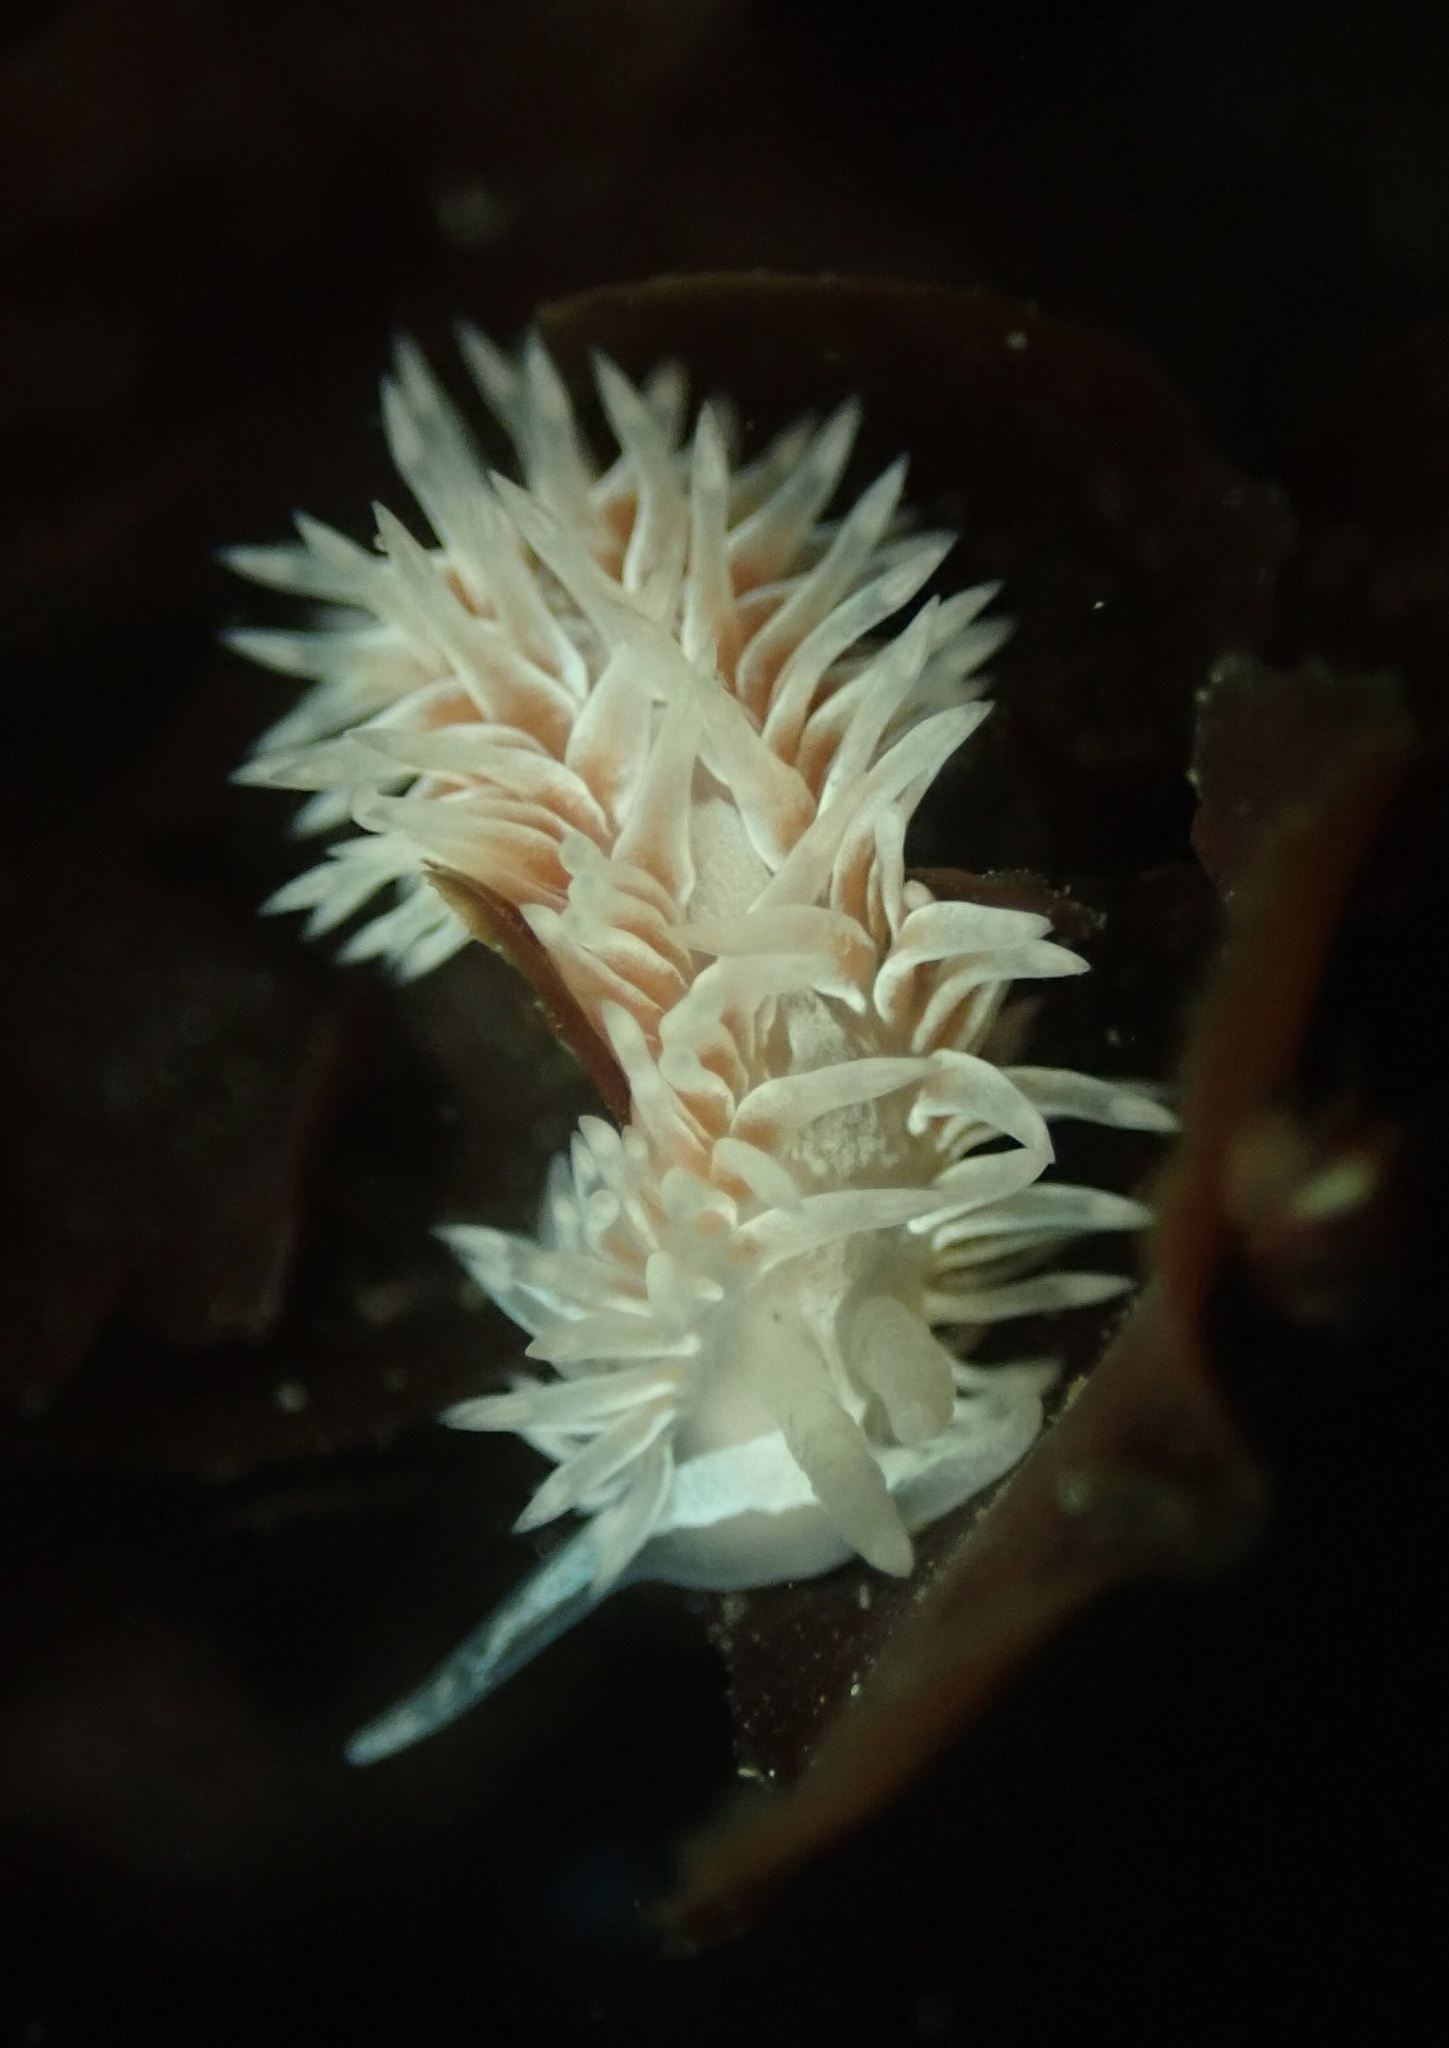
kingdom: Animalia
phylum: Mollusca
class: Gastropoda
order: Nudibranchia
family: Aeolidiidae
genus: Aeolidia
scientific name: Aeolidia loui
